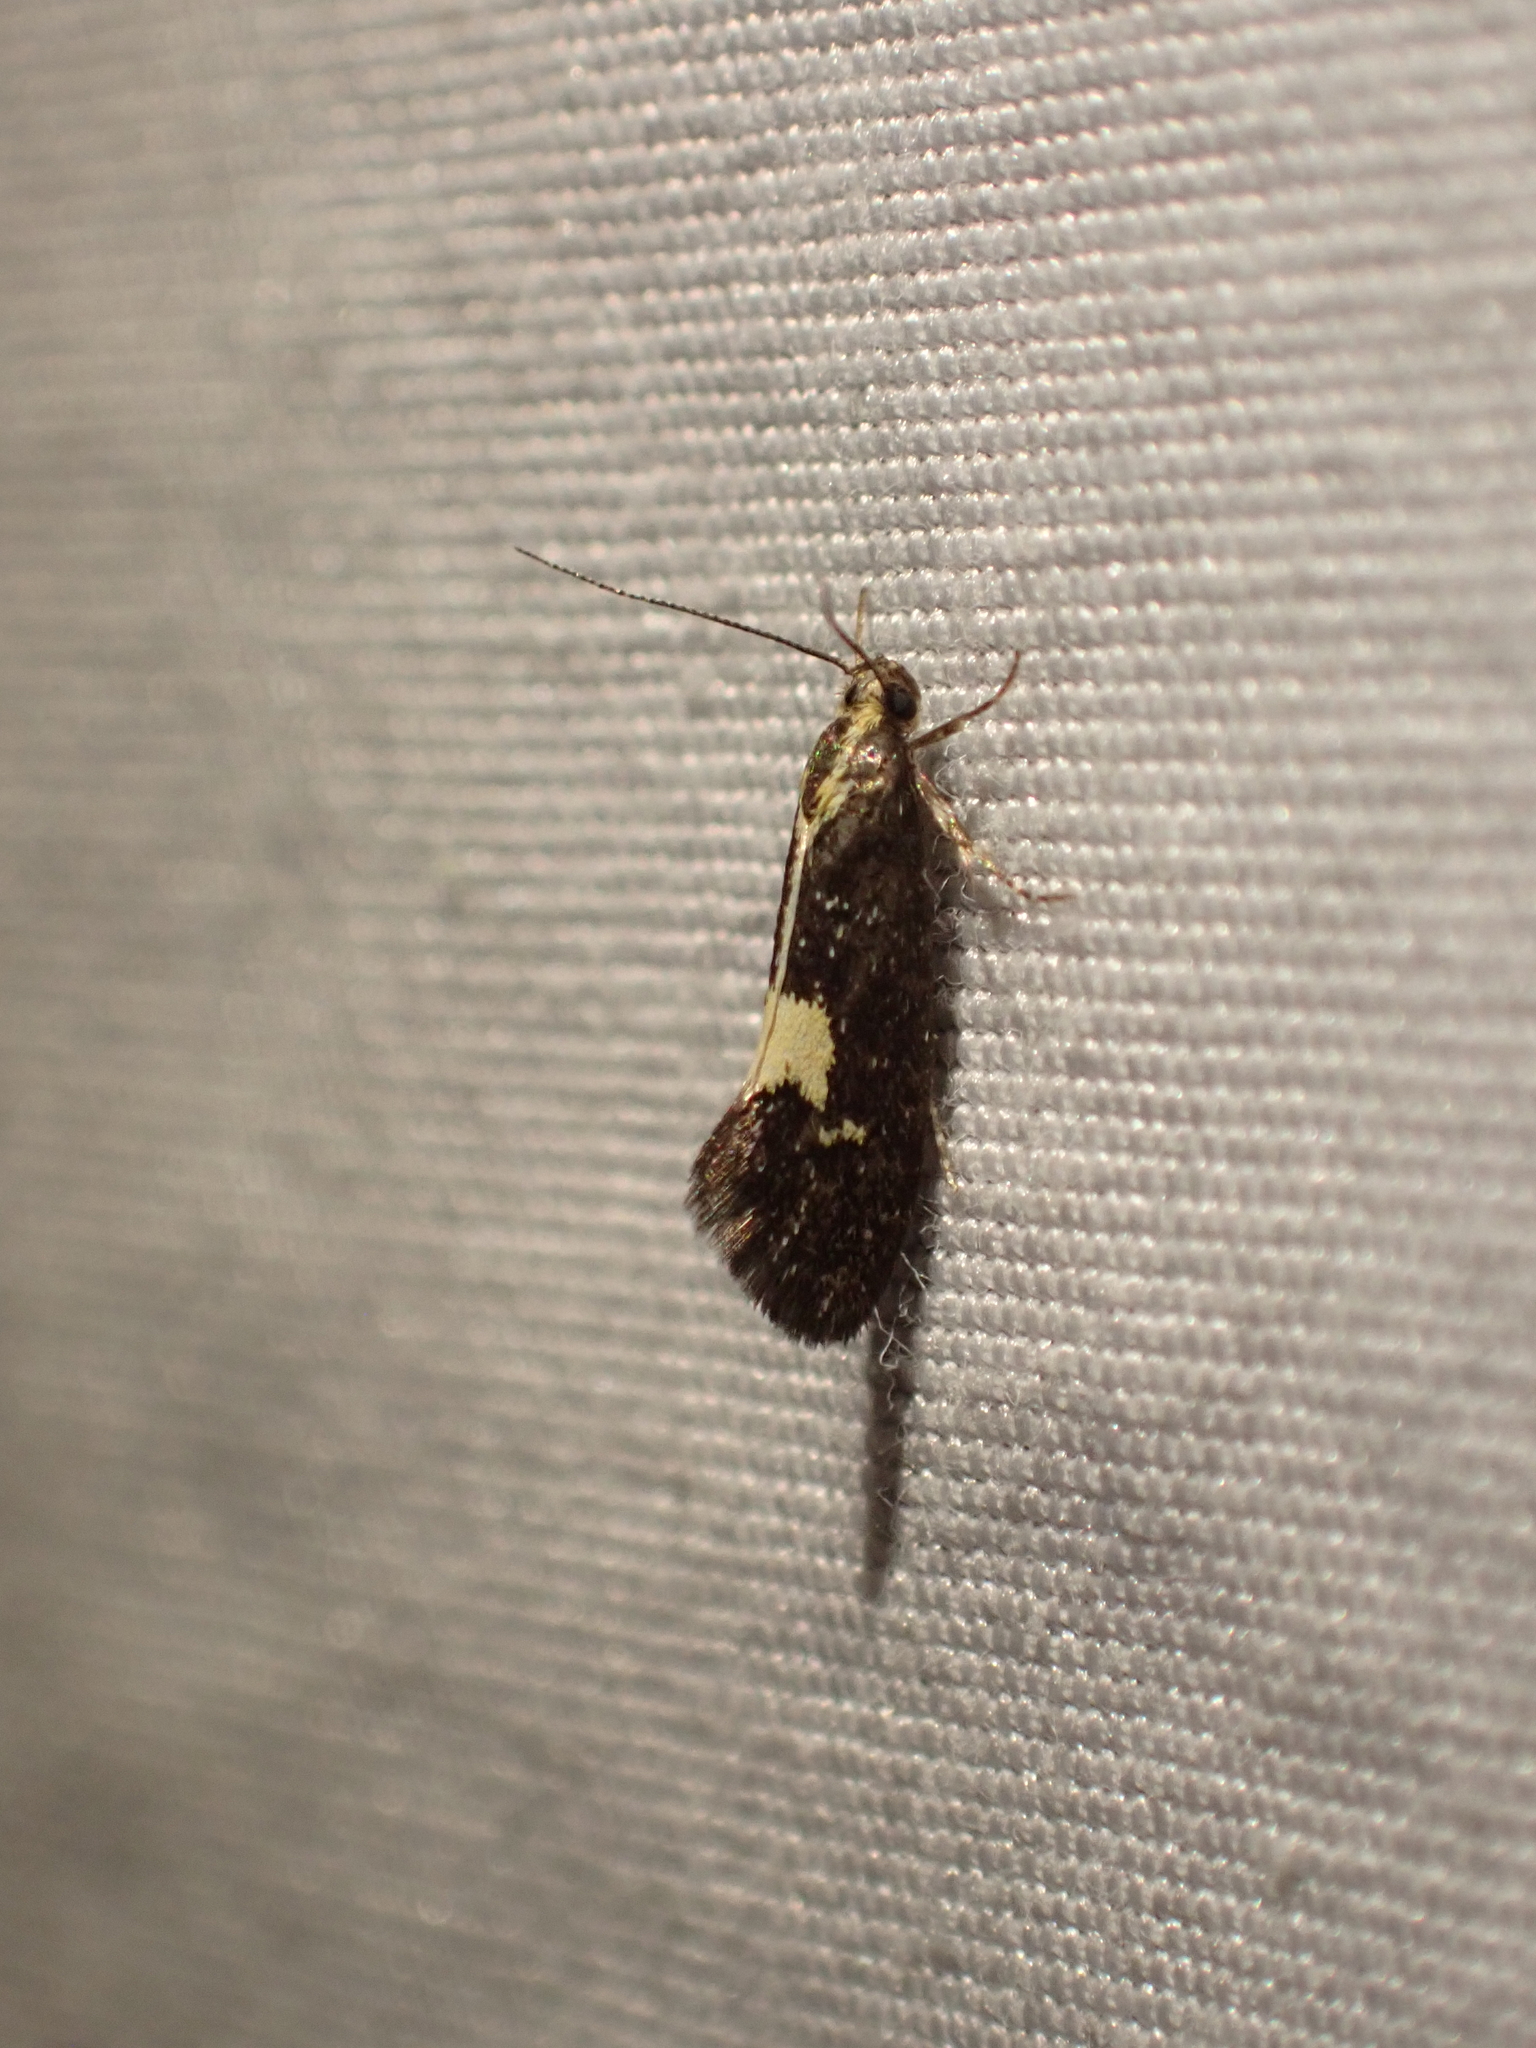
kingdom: Animalia
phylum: Arthropoda
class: Insecta
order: Lepidoptera
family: Oecophoridae
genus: Polix
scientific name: Polix coloradella
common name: Skunk moth
